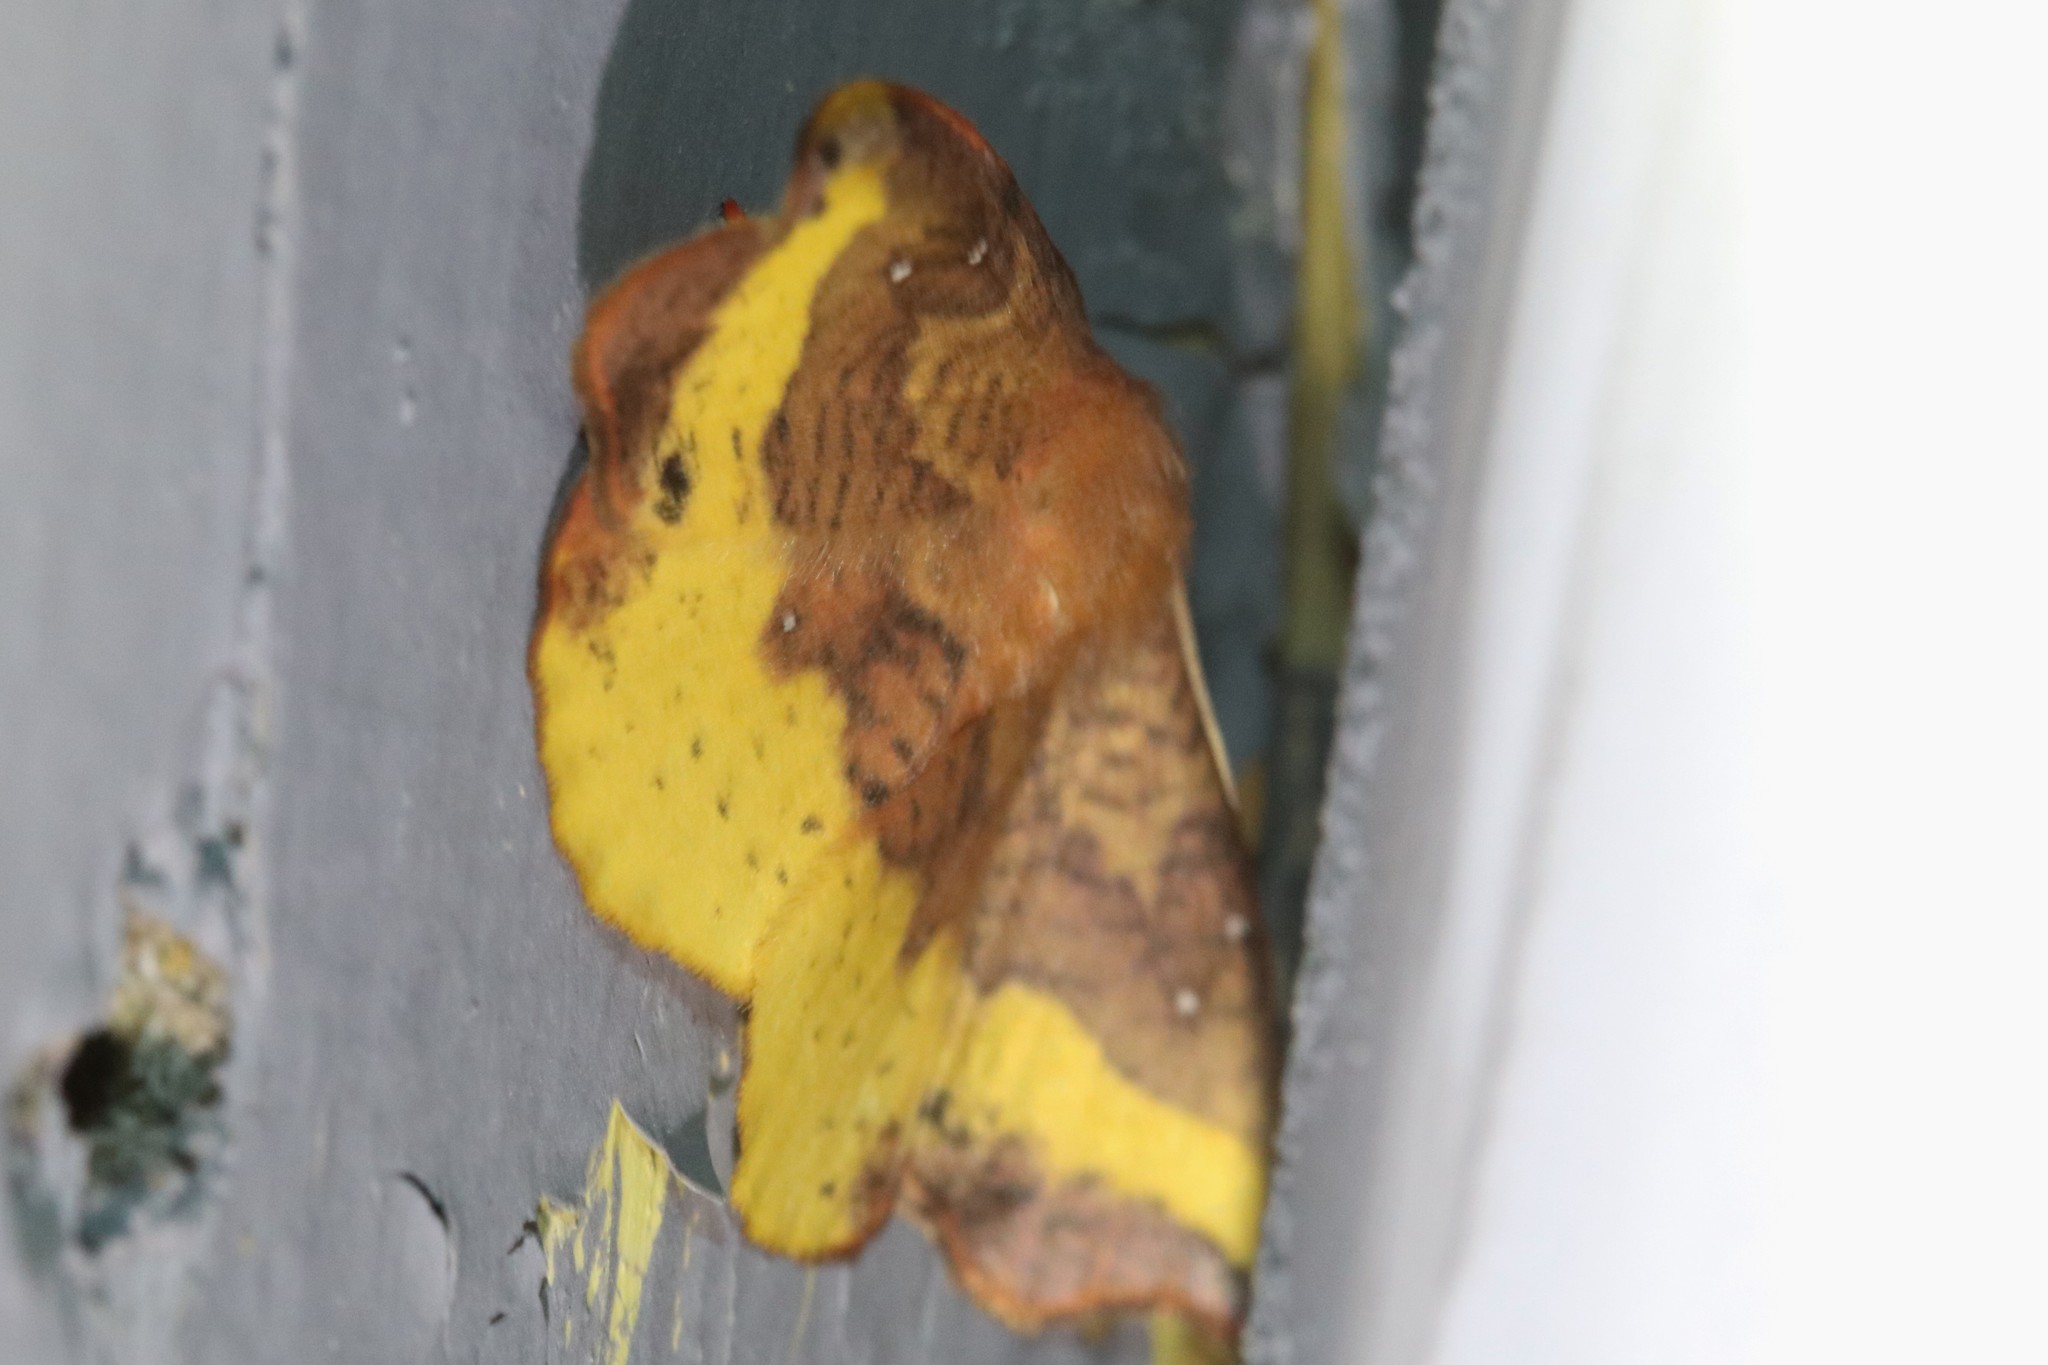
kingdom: Animalia
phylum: Arthropoda
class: Insecta
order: Lepidoptera
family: Drepanidae
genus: Oreta
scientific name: Oreta rosea
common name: Rose hooktip
